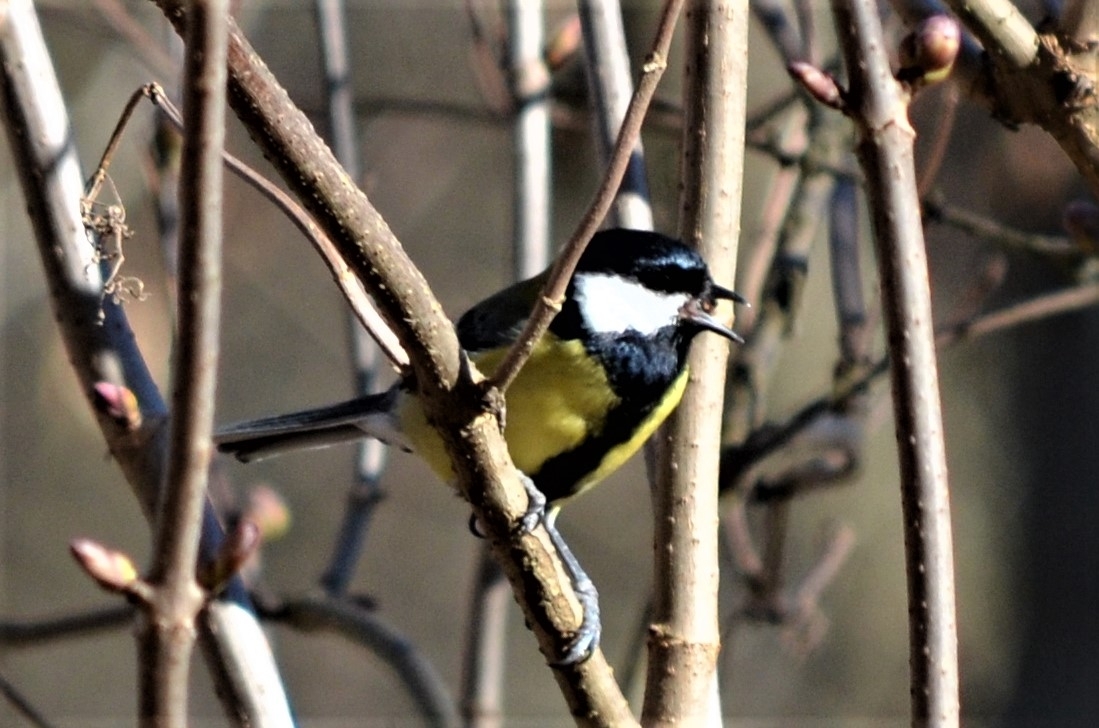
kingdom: Animalia
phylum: Chordata
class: Aves
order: Passeriformes
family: Paridae
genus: Parus
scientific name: Parus major
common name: Great tit
